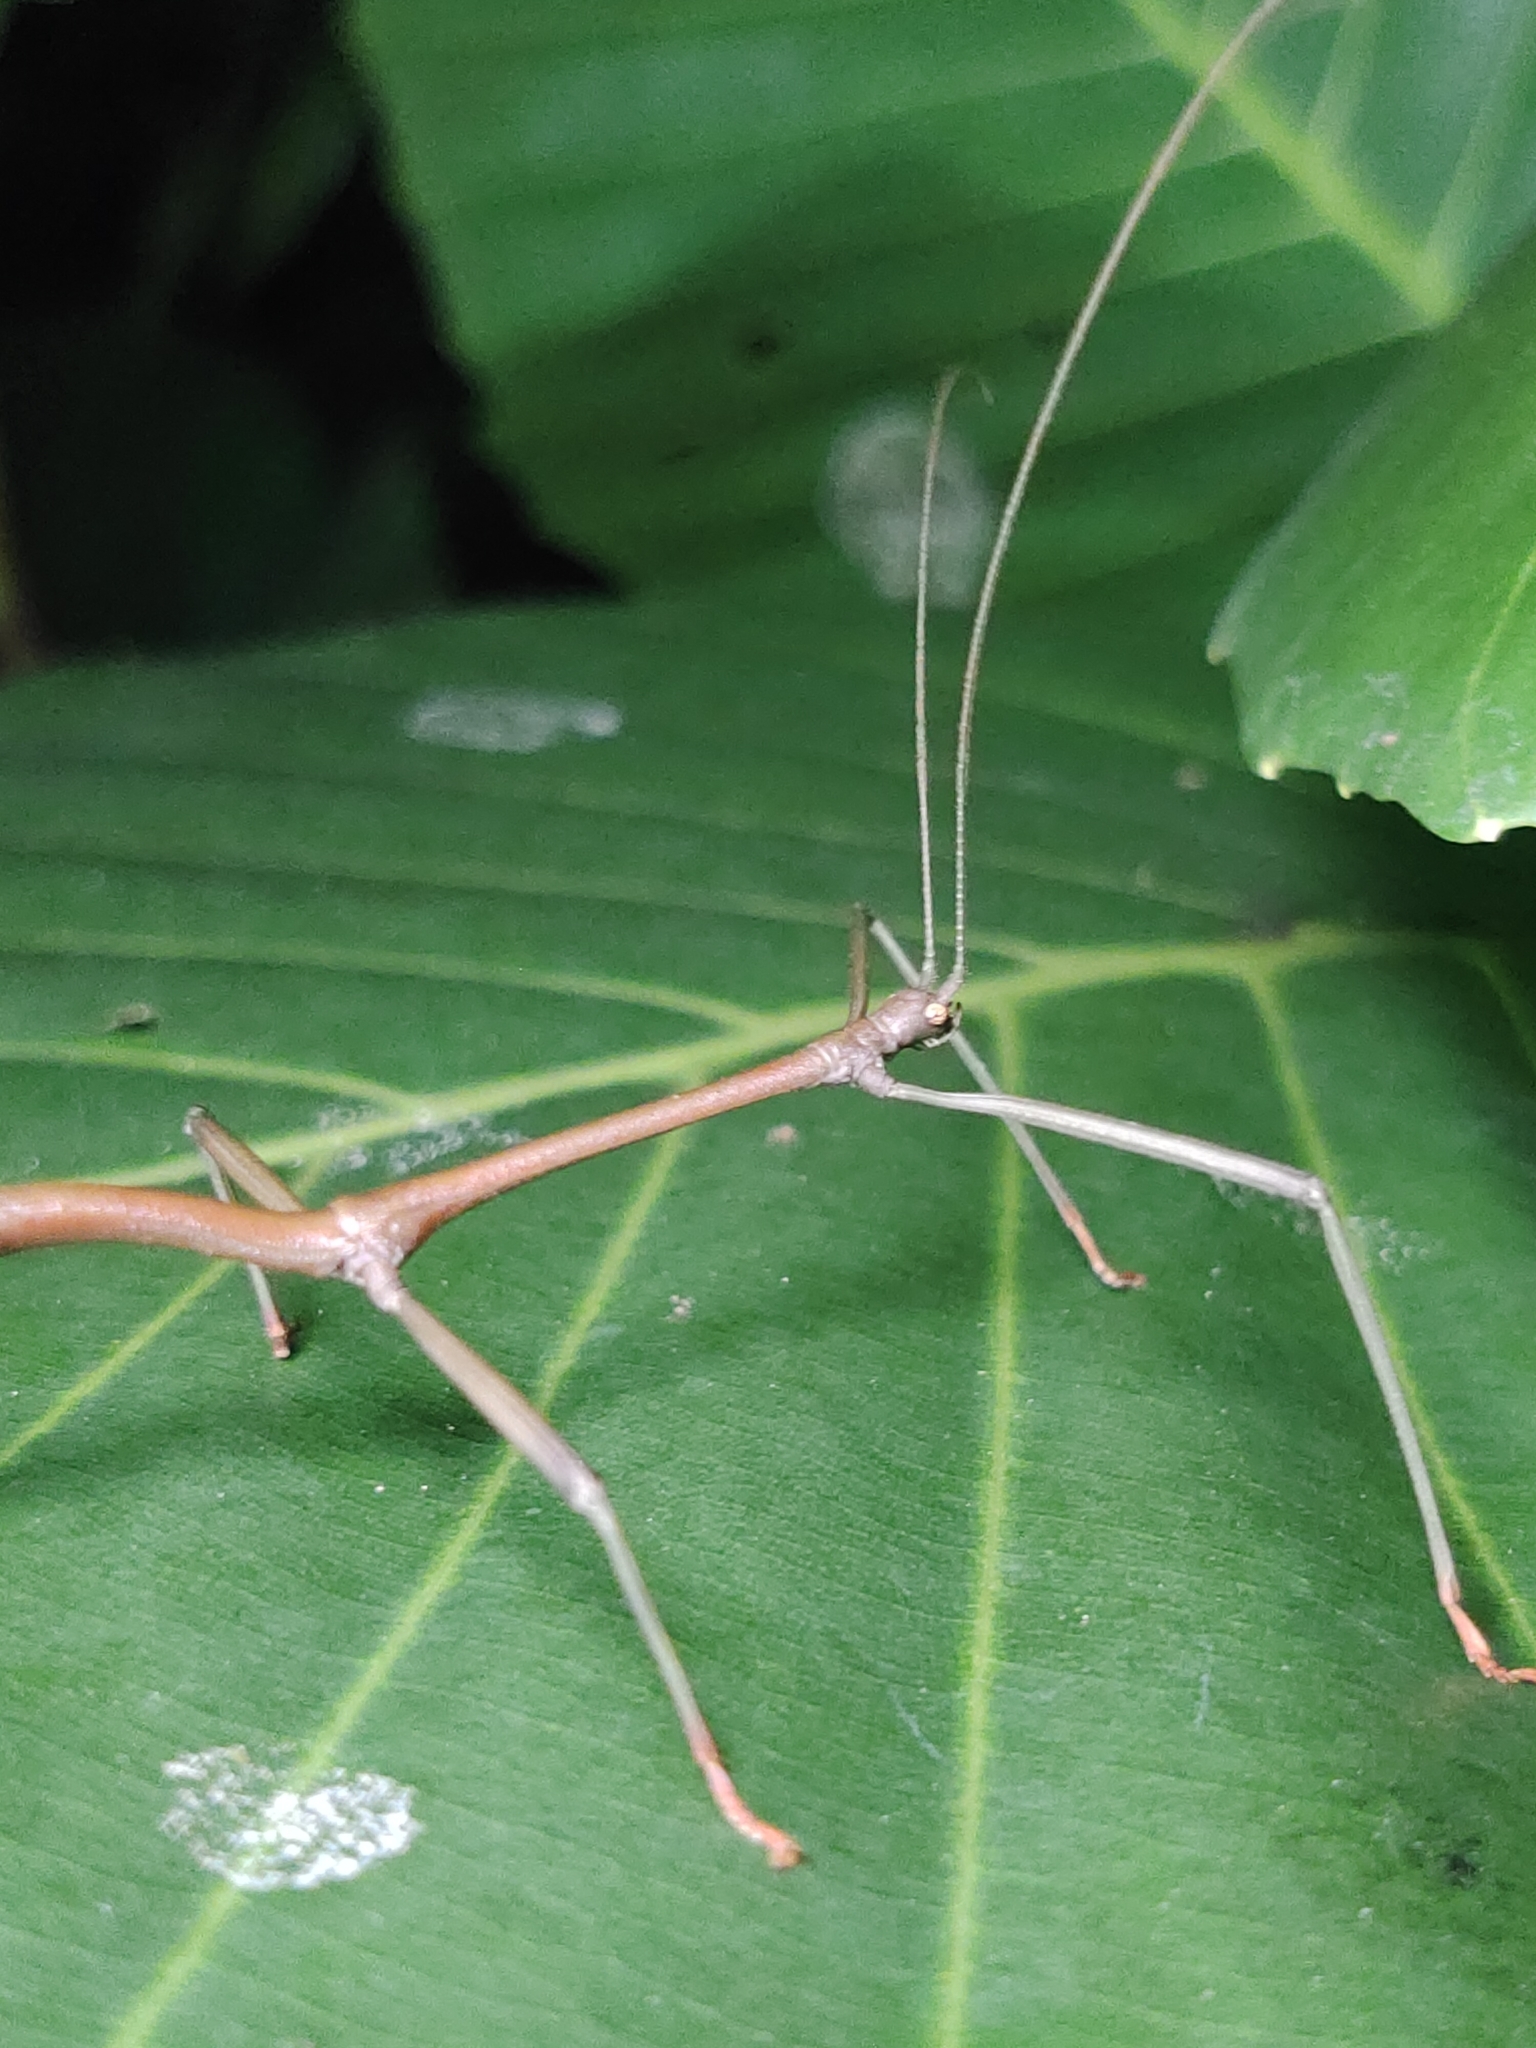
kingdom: Animalia
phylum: Arthropoda
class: Insecta
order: Phasmida
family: Lonchodidae
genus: Lonchodes
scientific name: Lonchodes brevipes
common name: Gray's malayan stick insect
